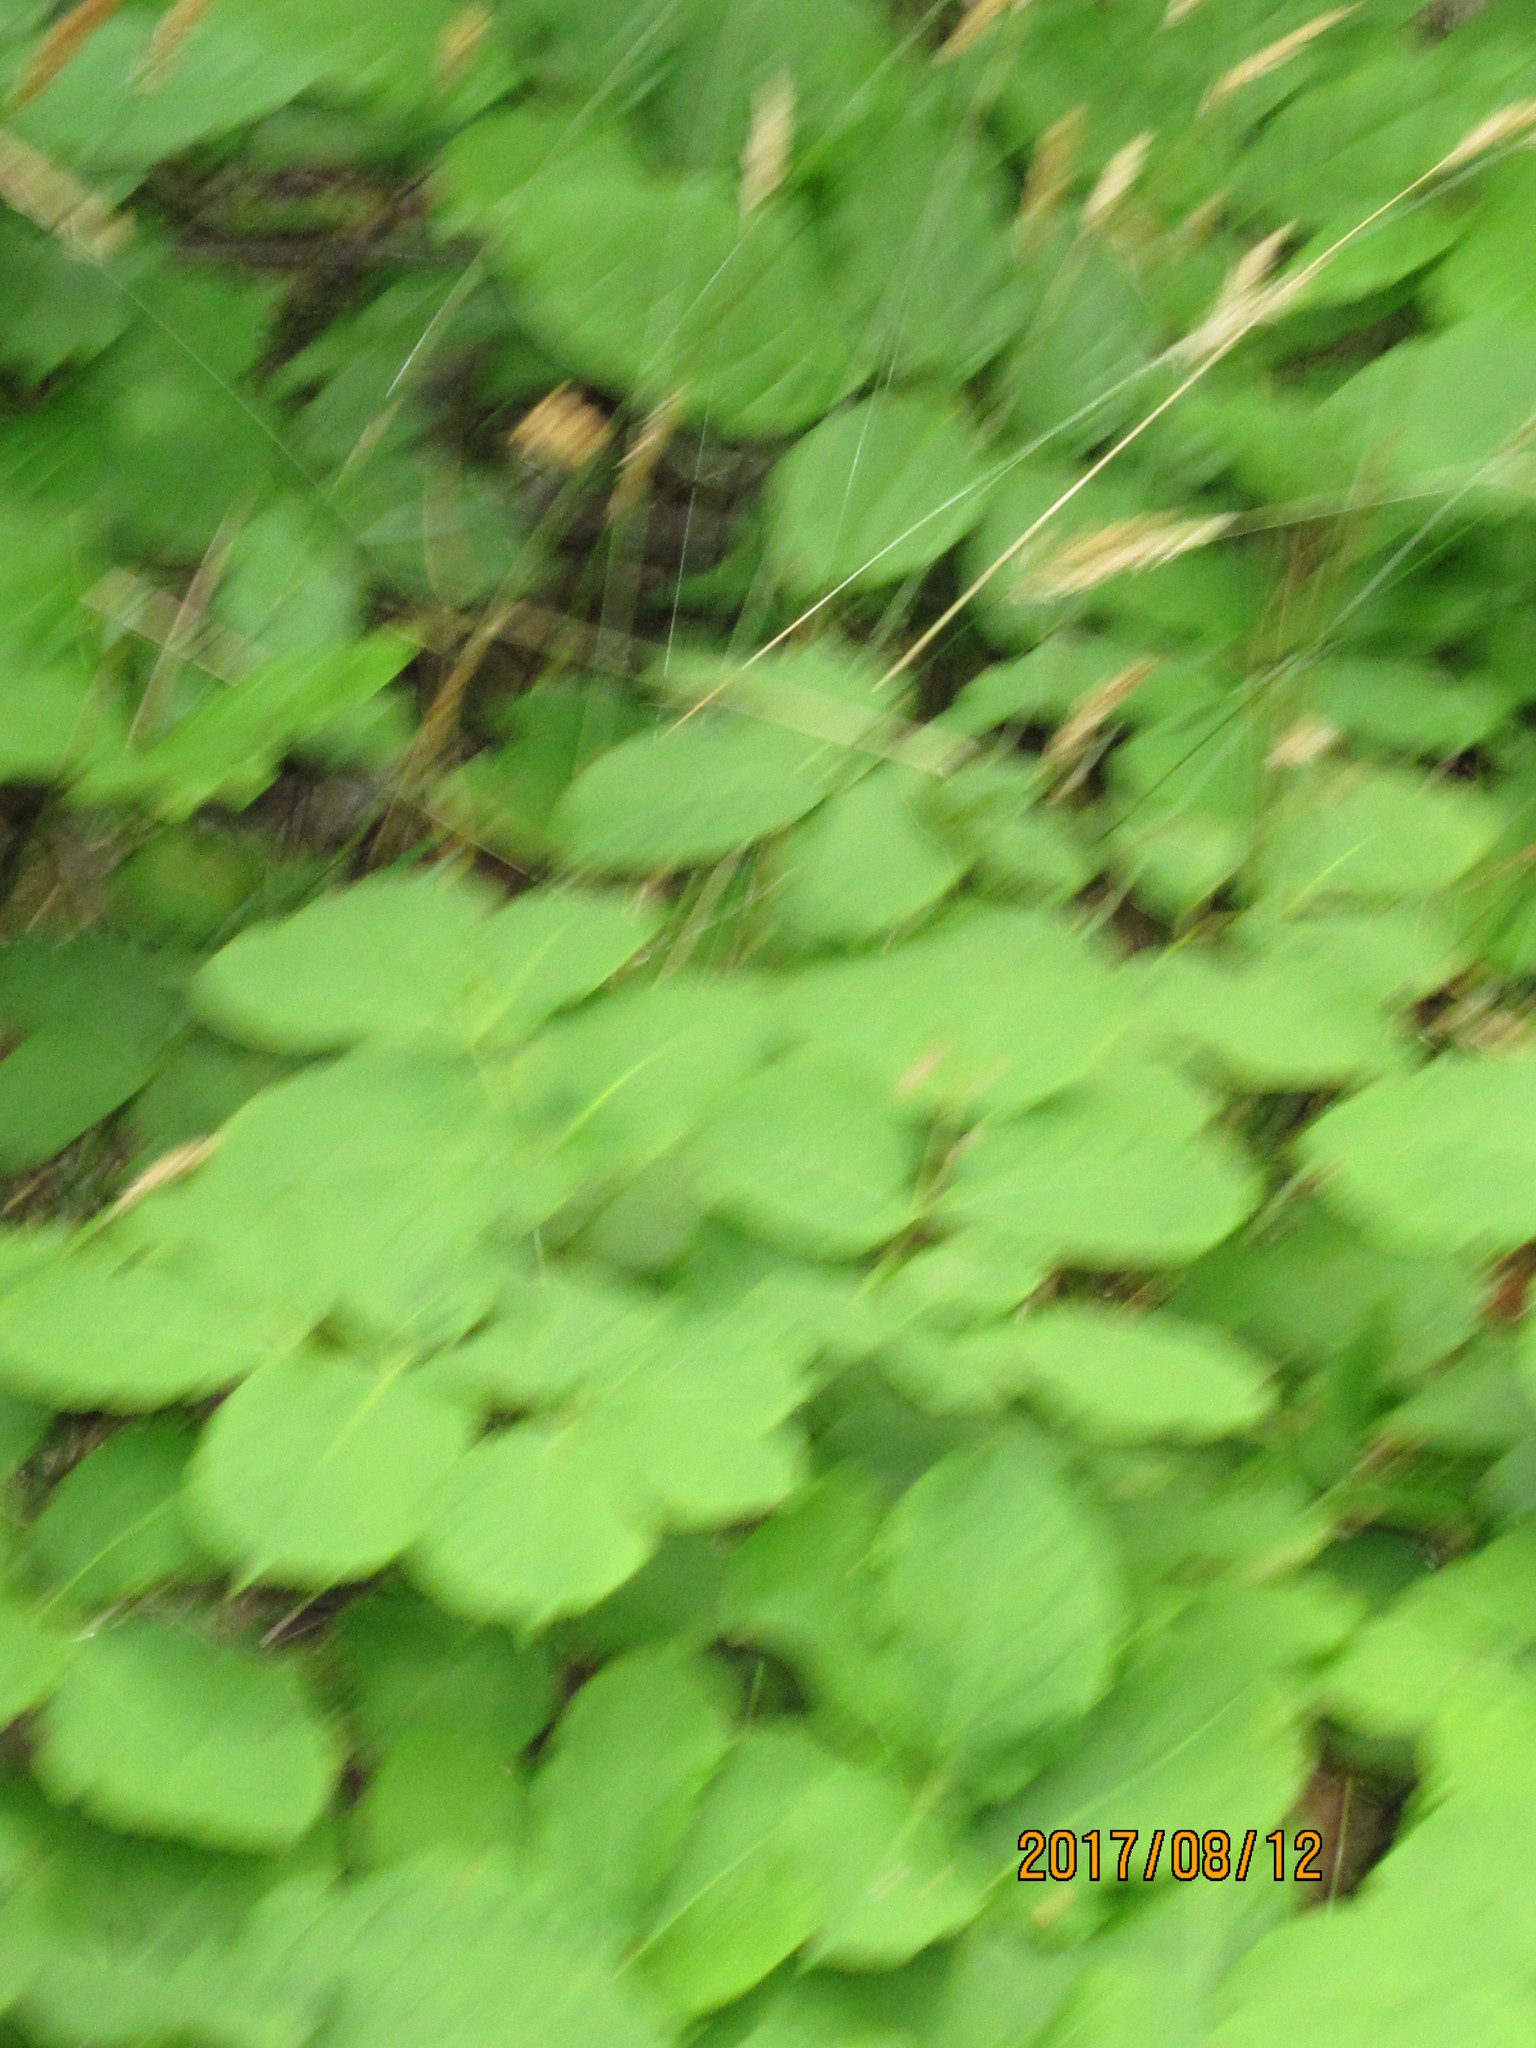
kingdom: Plantae
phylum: Tracheophyta
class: Magnoliopsida
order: Apiales
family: Araliaceae
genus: Aralia
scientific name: Aralia nudicaulis
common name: Wild sarsaparilla
